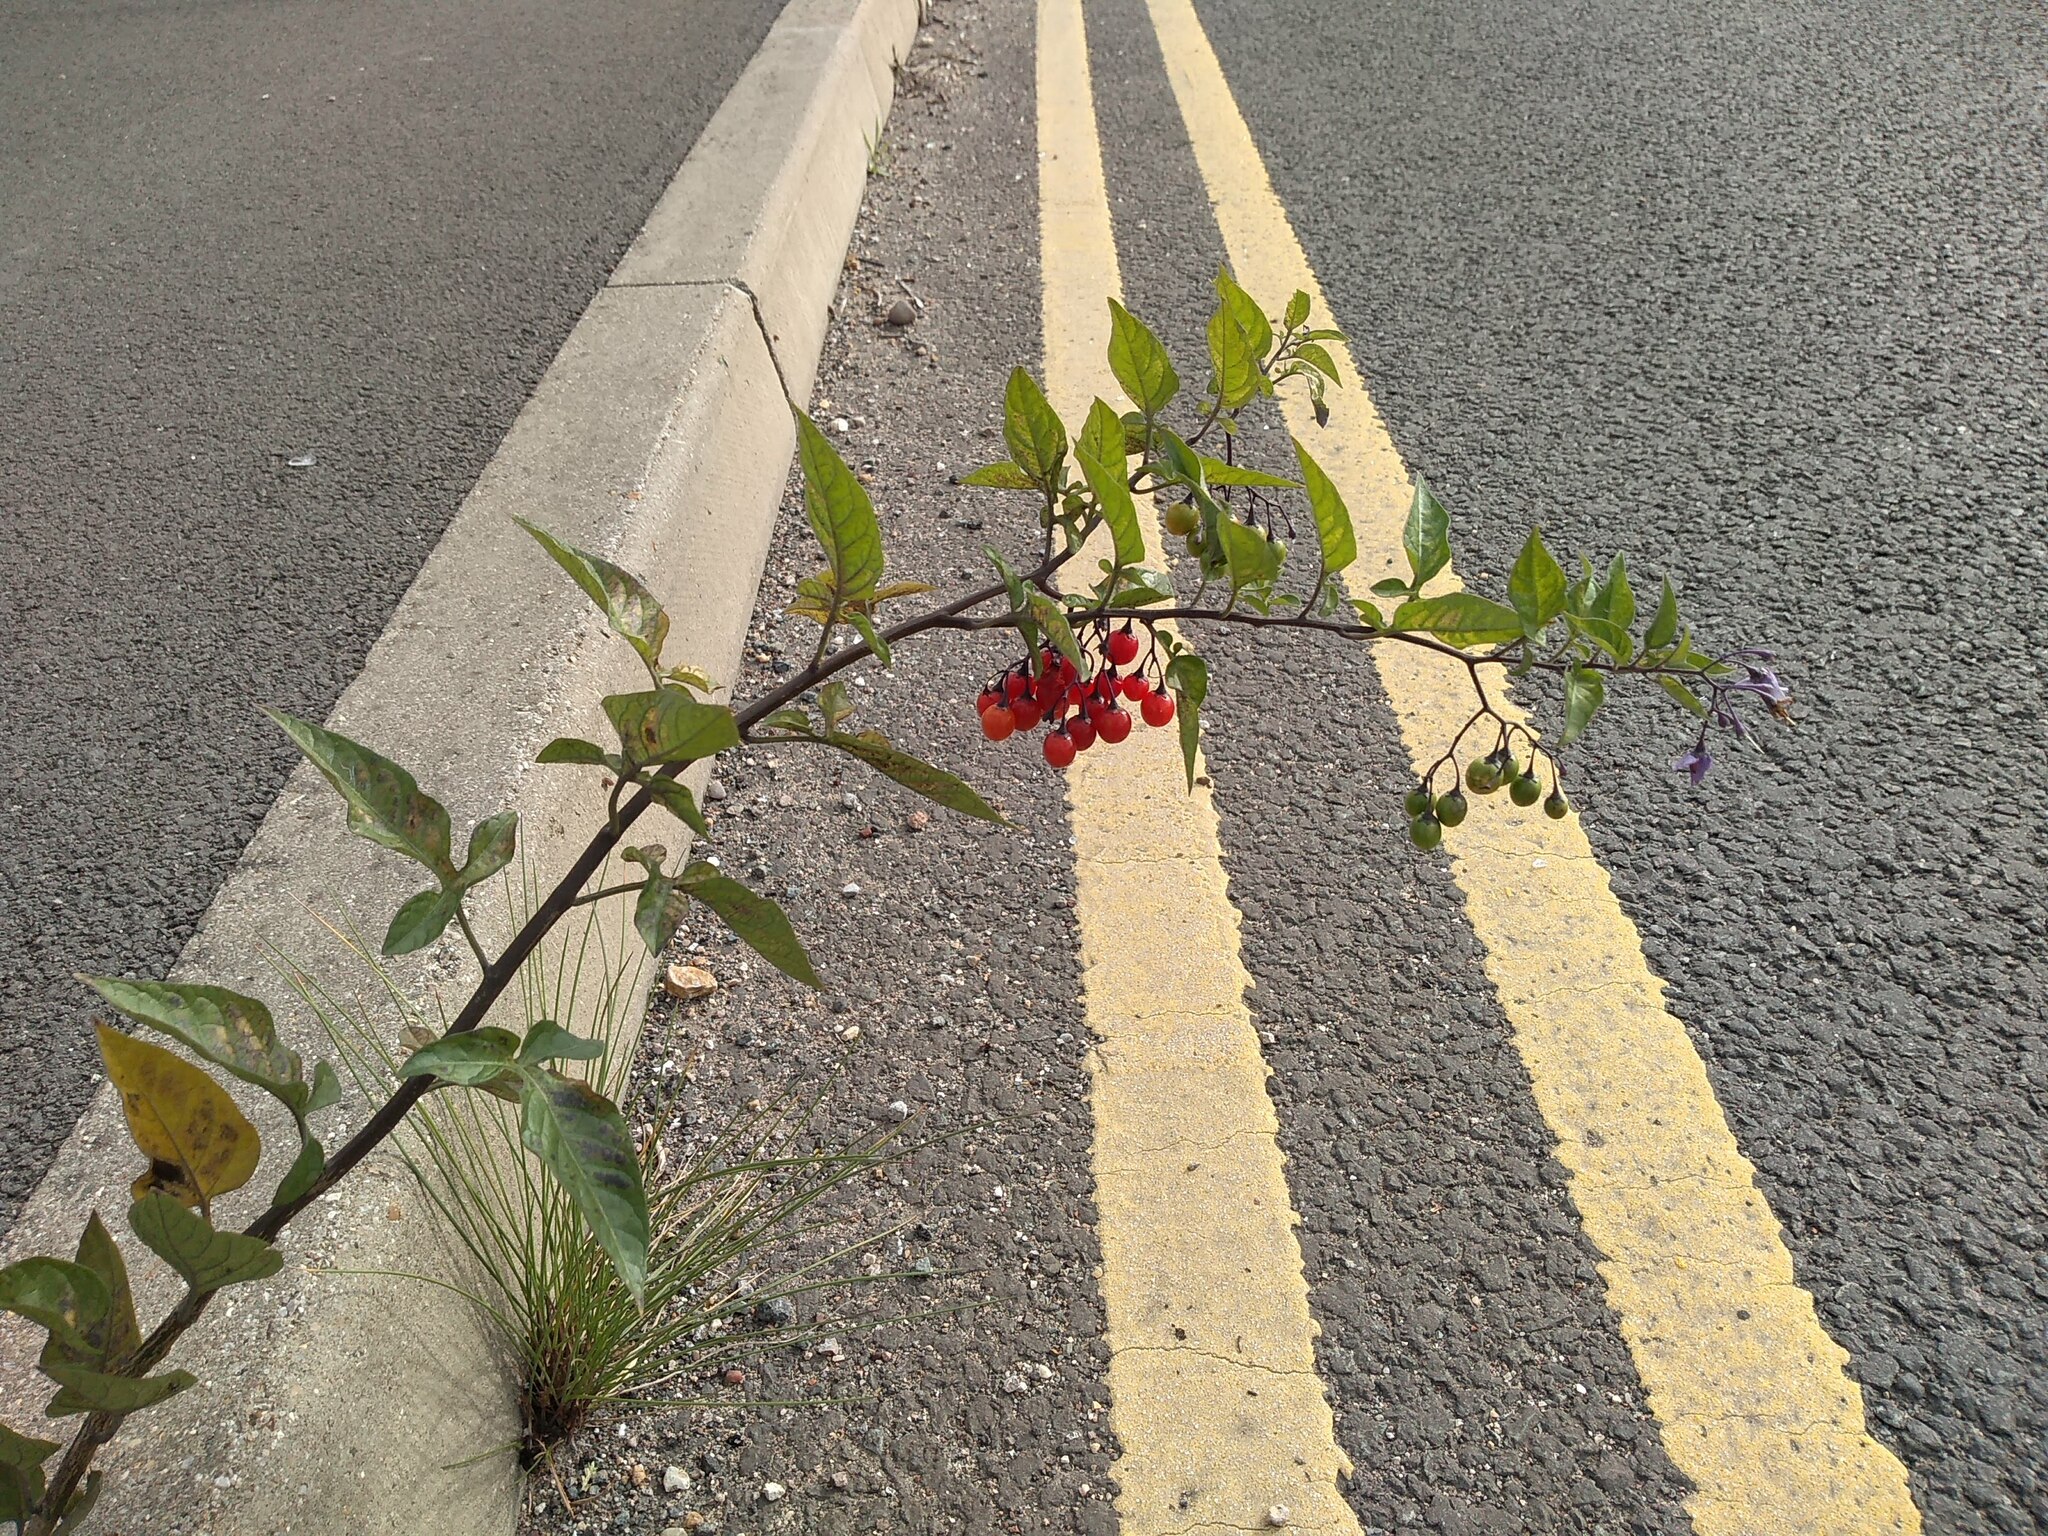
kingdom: Plantae
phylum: Tracheophyta
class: Magnoliopsida
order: Solanales
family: Solanaceae
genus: Solanum
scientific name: Solanum dulcamara
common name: Climbing nightshade
